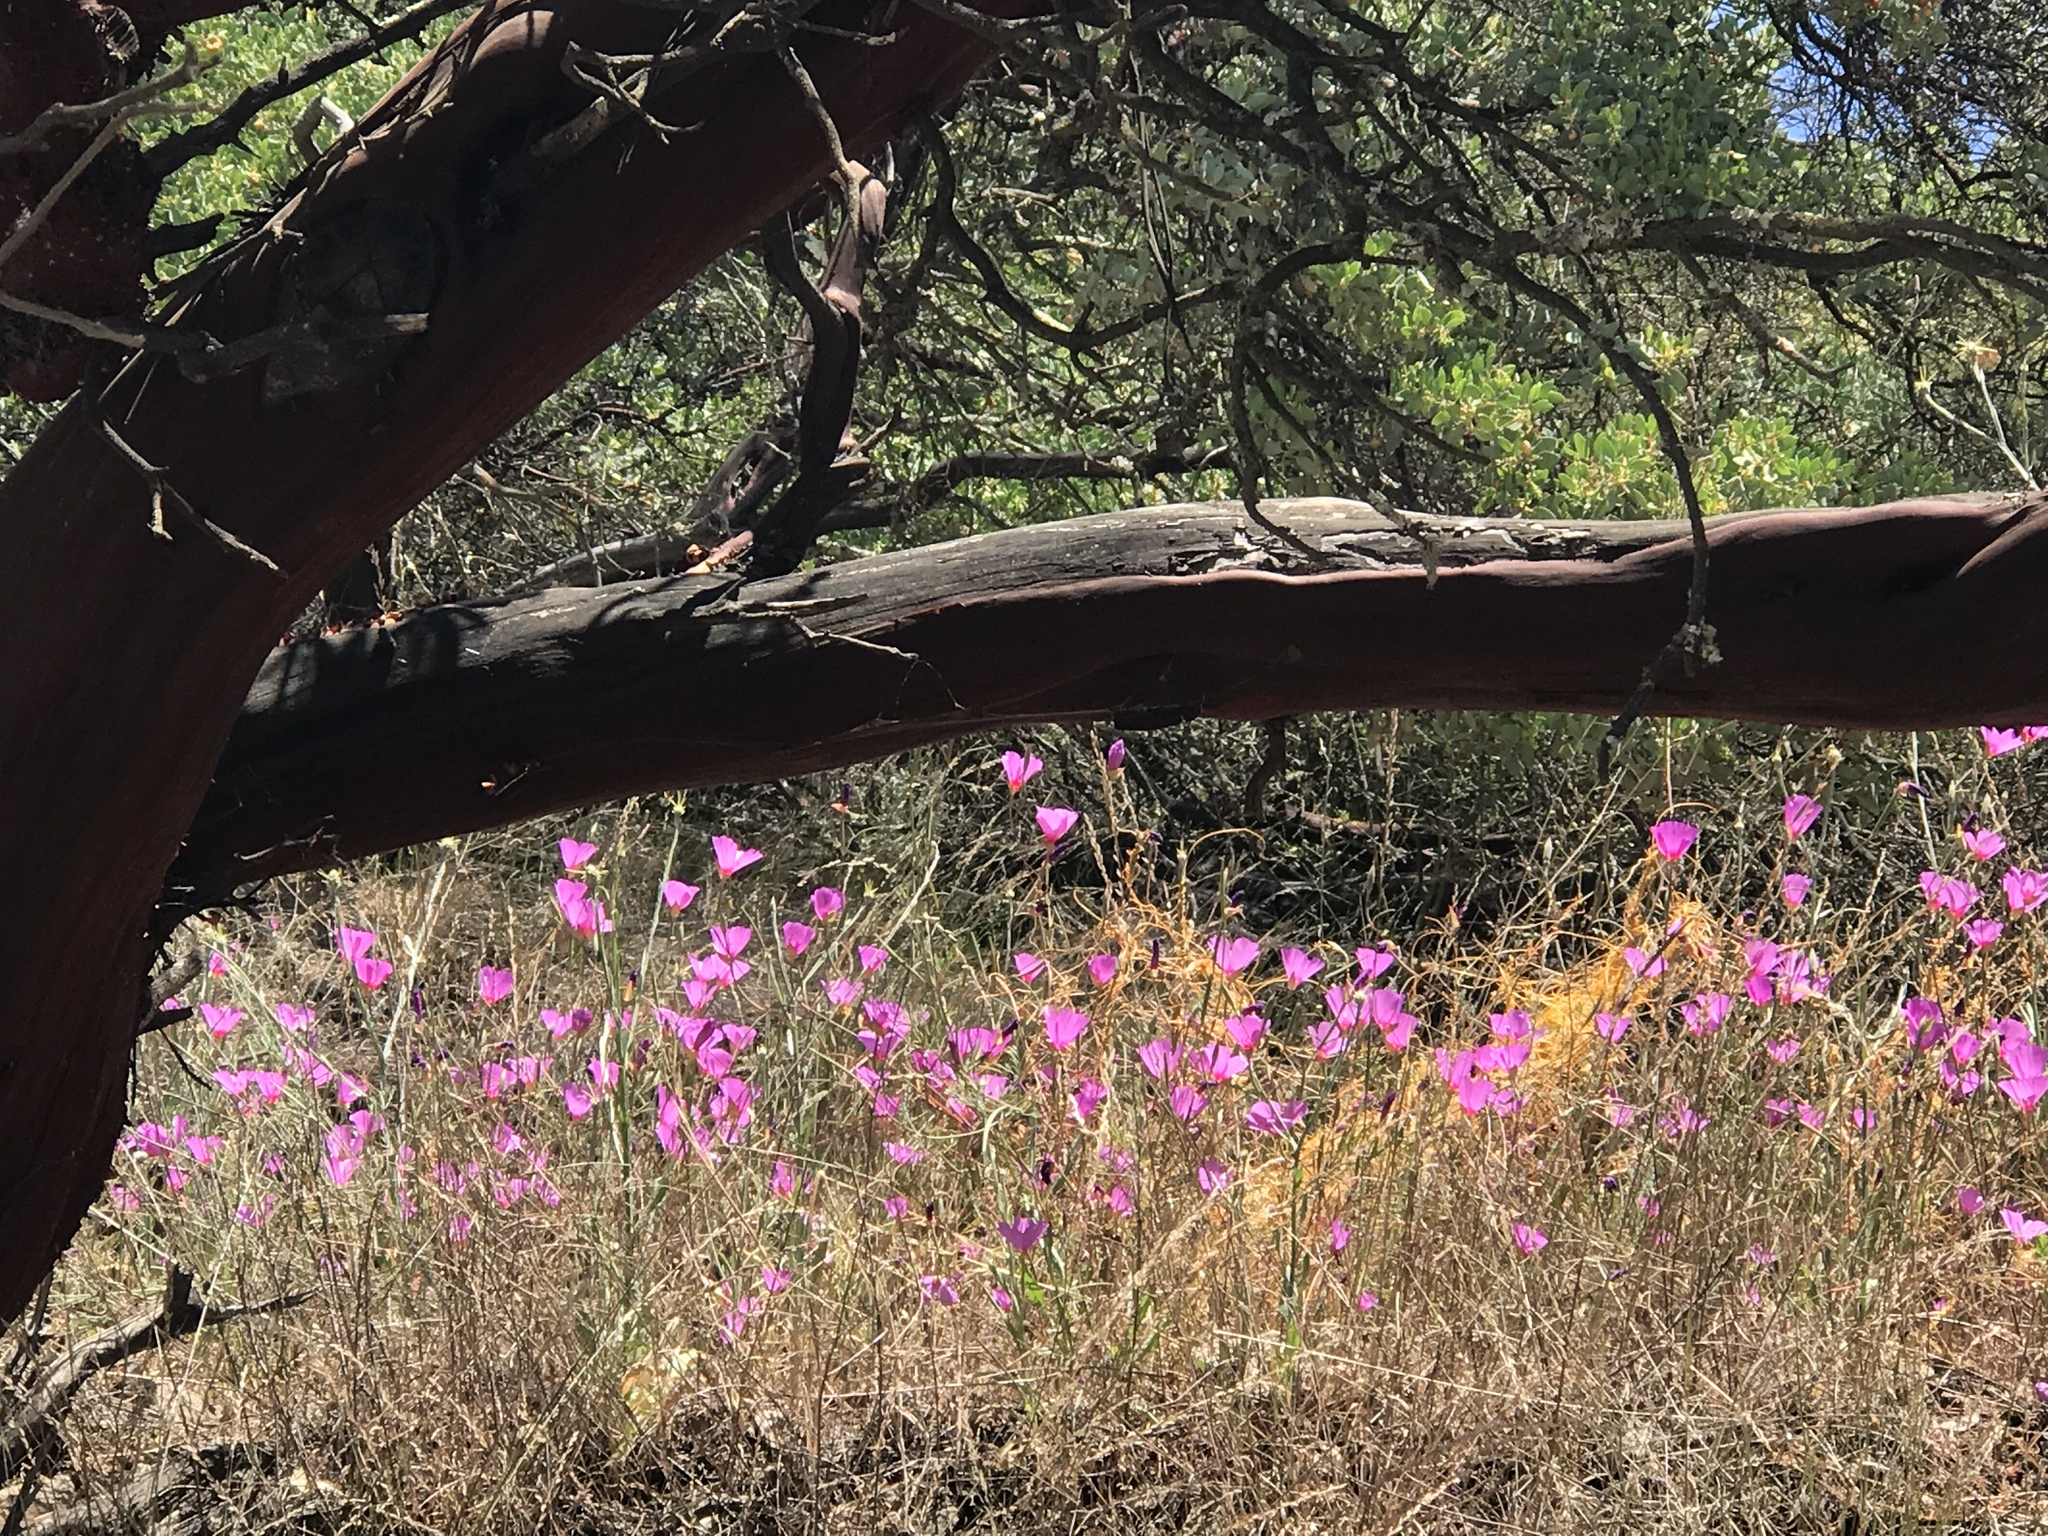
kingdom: Plantae
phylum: Tracheophyta
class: Magnoliopsida
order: Myrtales
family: Onagraceae
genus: Clarkia
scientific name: Clarkia rubicunda
